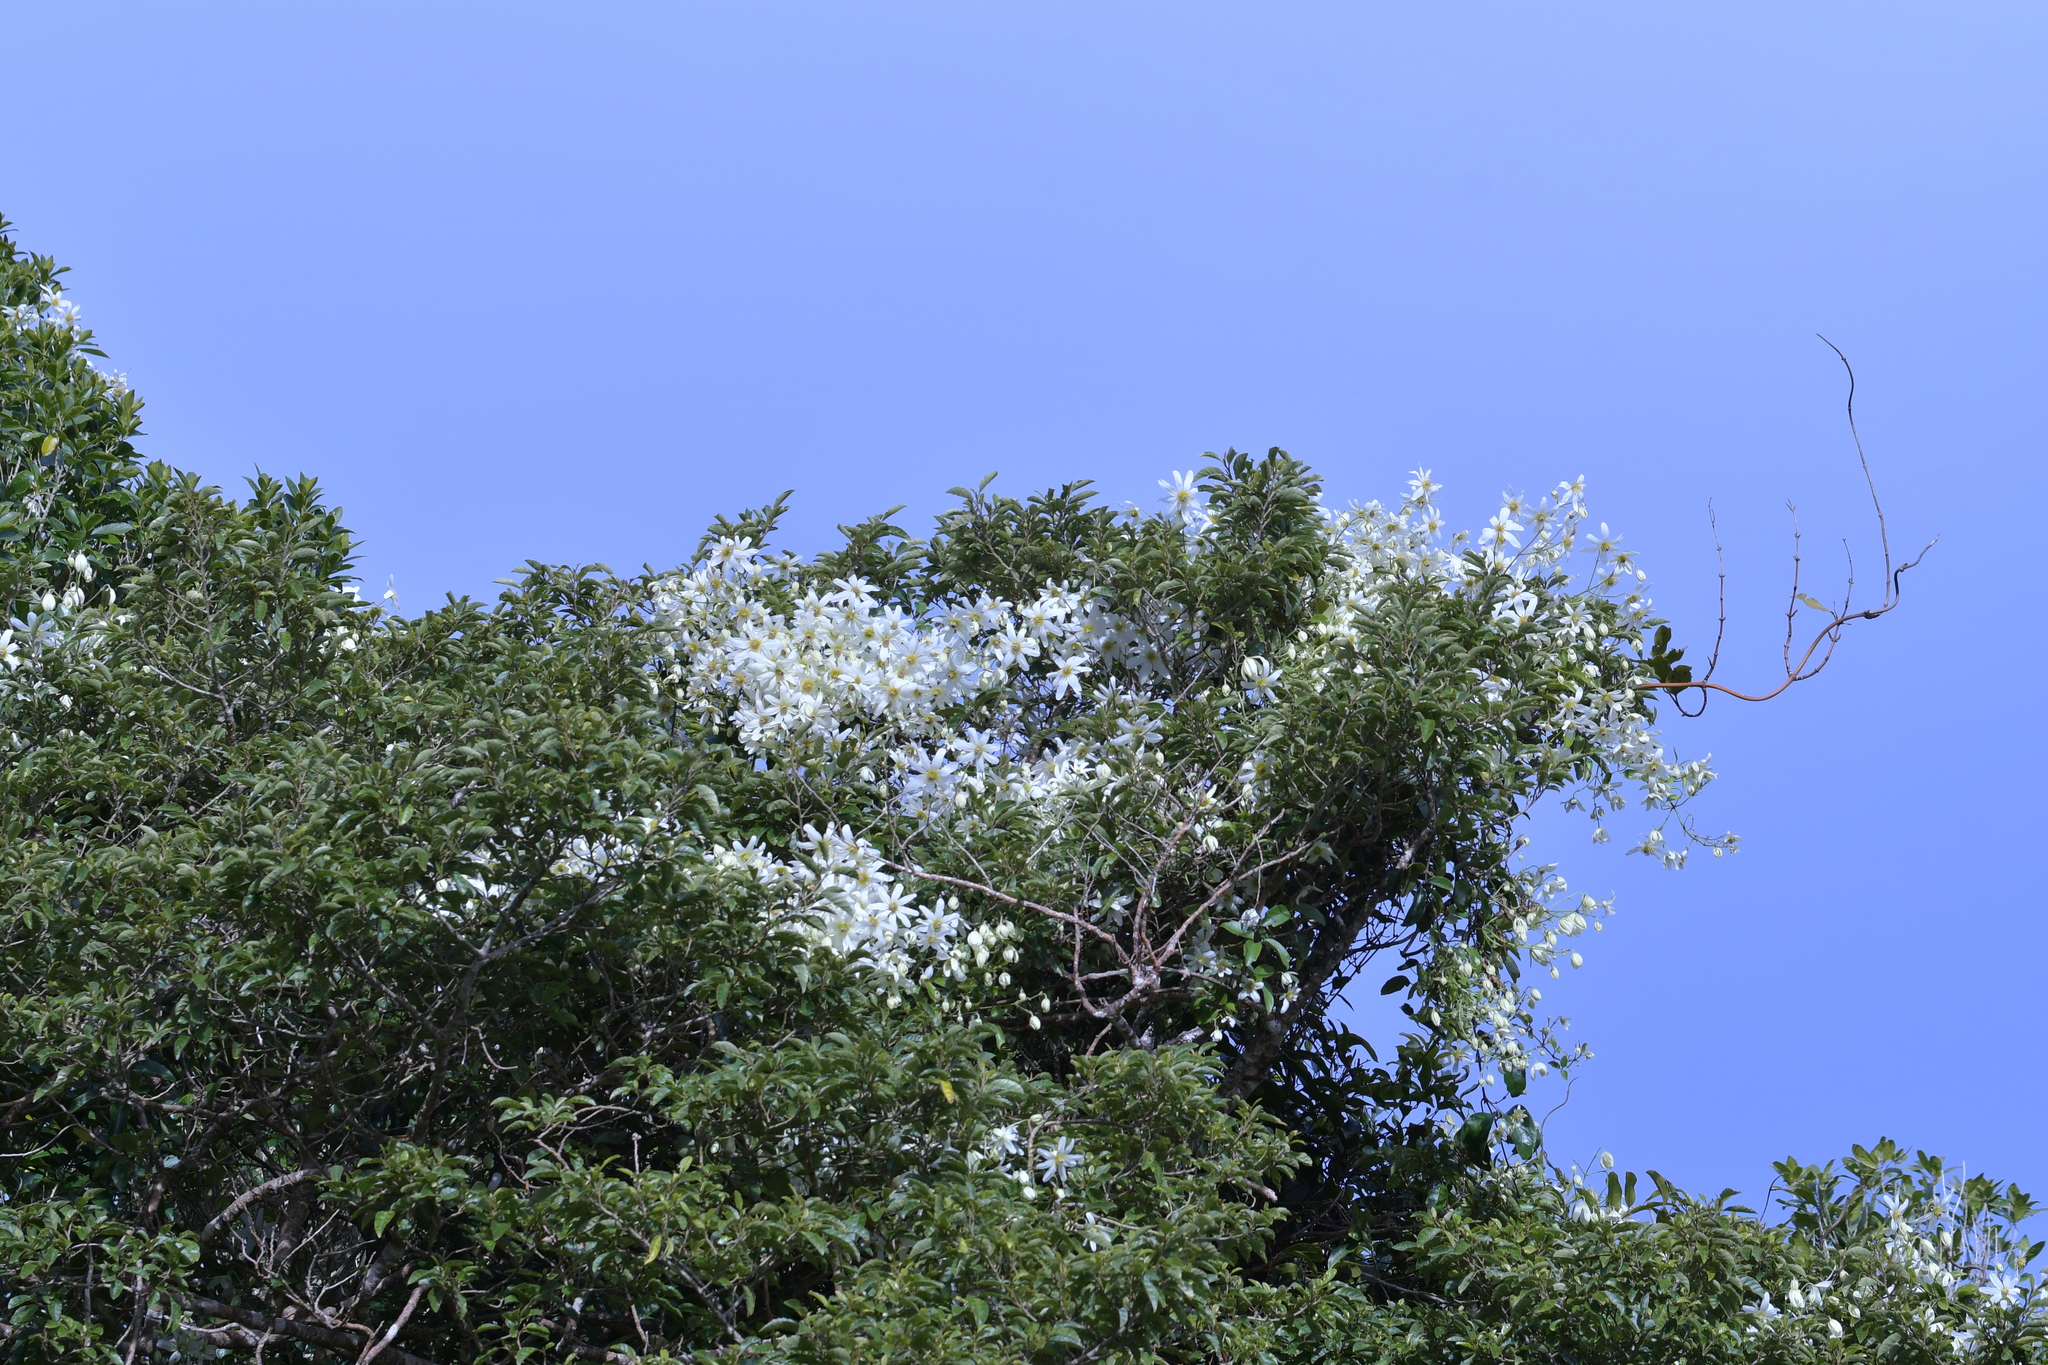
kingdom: Plantae
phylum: Tracheophyta
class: Magnoliopsida
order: Ranunculales
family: Ranunculaceae
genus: Clematis
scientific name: Clematis paniculata
